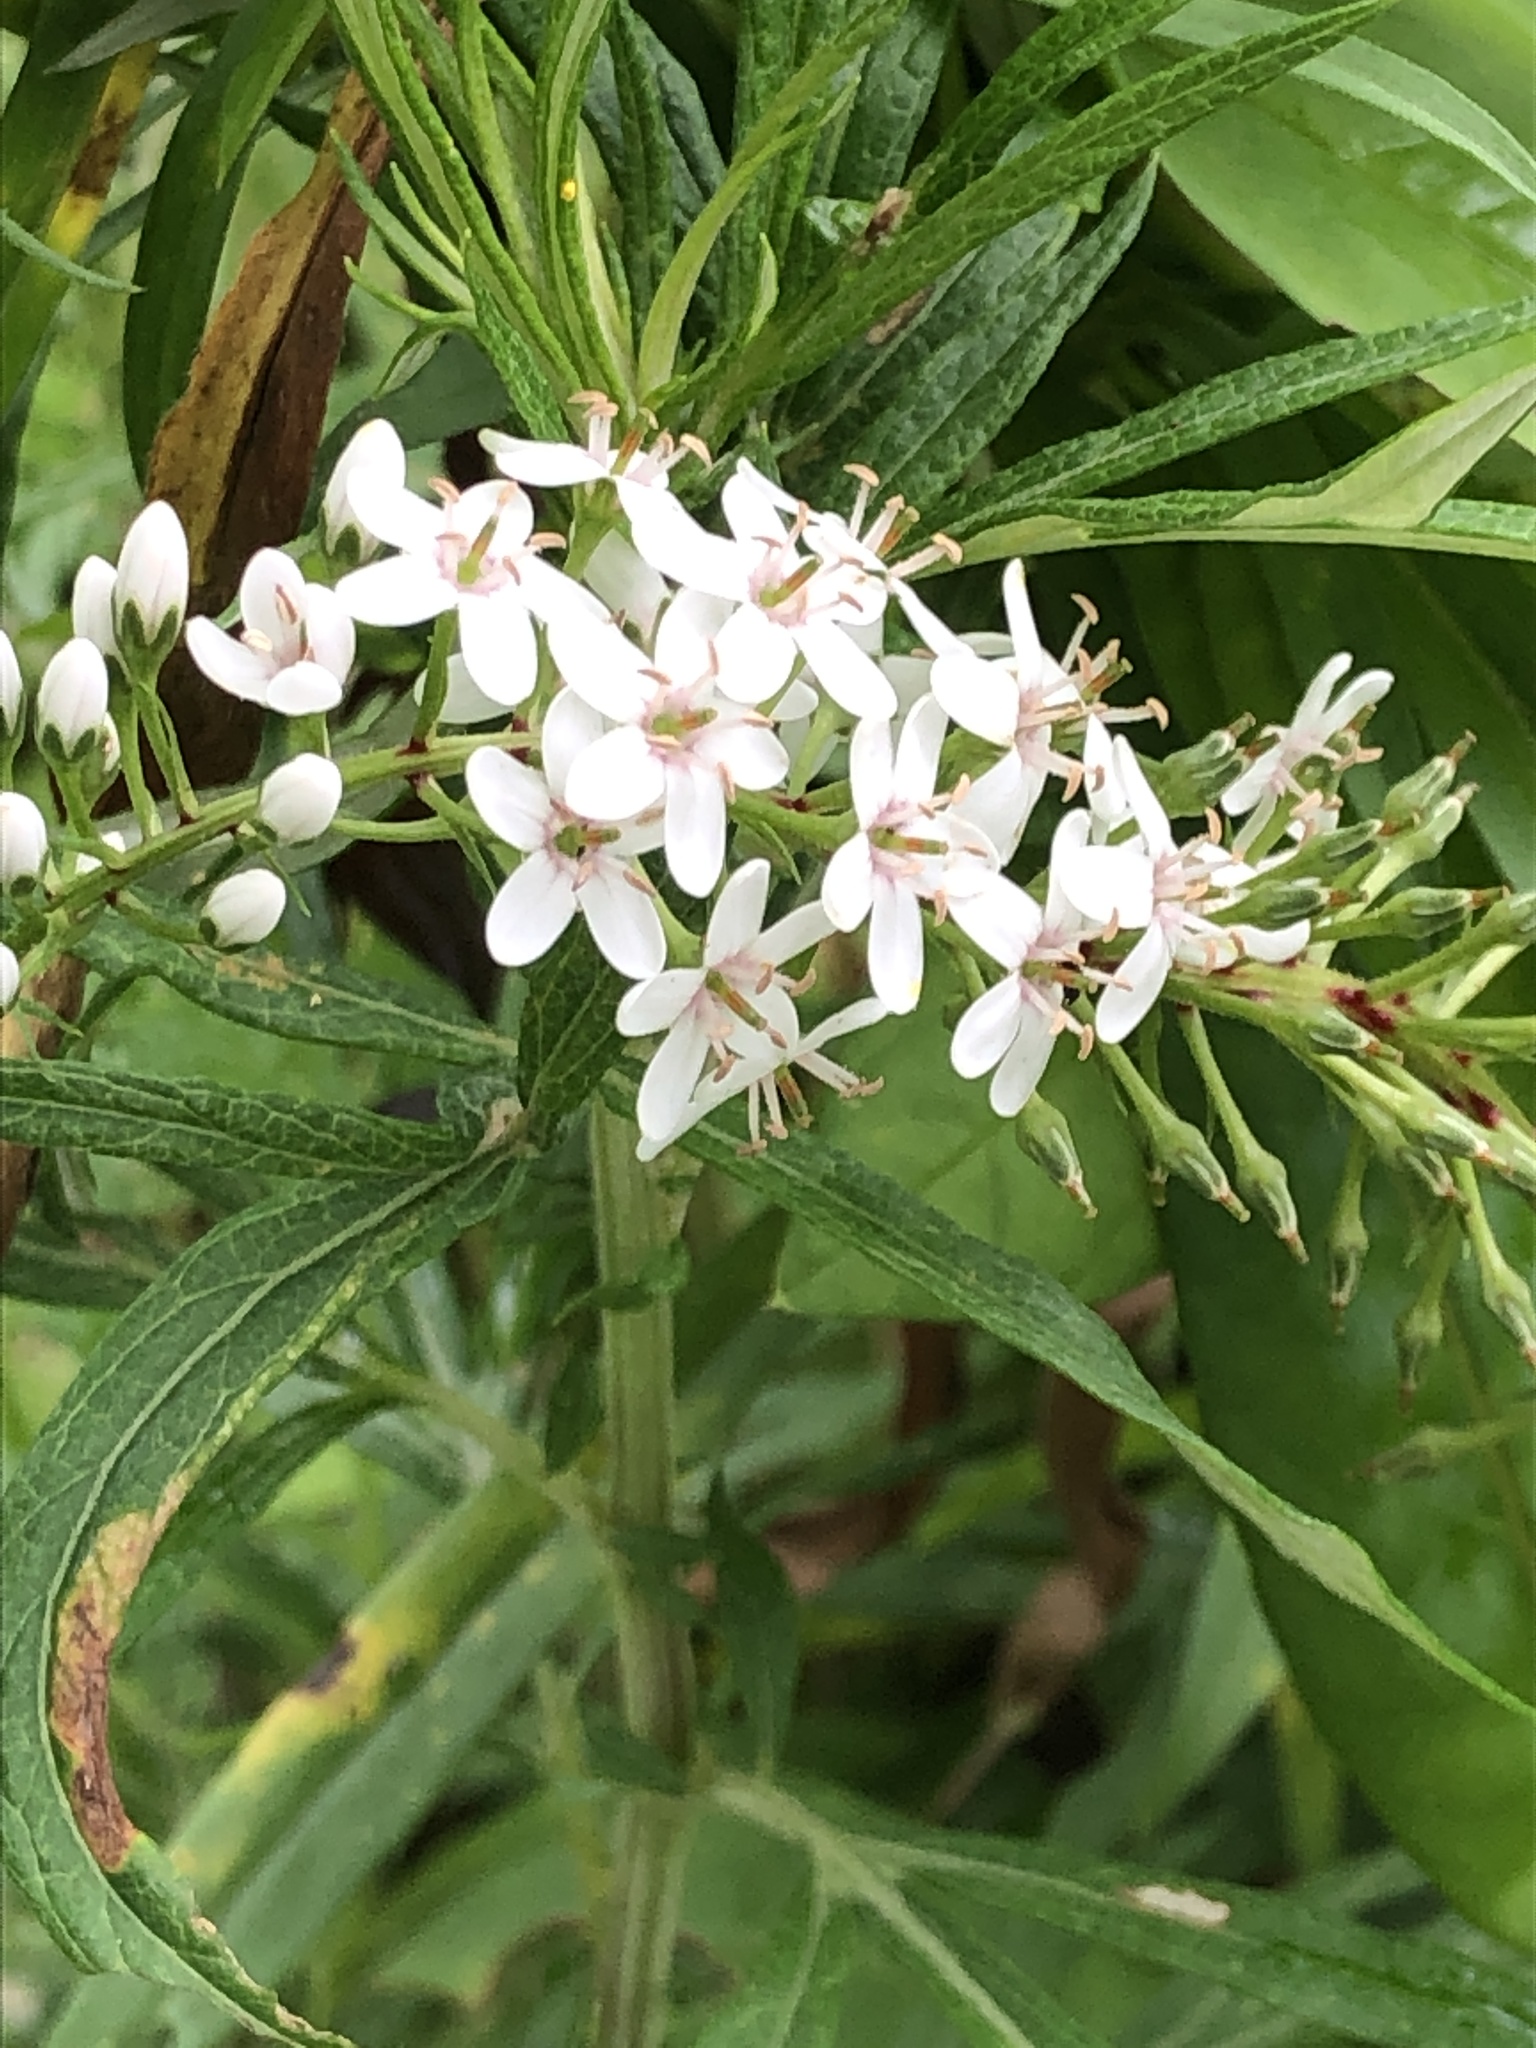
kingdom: Plantae
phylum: Tracheophyta
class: Magnoliopsida
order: Ericales
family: Primulaceae
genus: Lysimachia
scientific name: Lysimachia clethroides
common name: Gooseneck loosestrife
